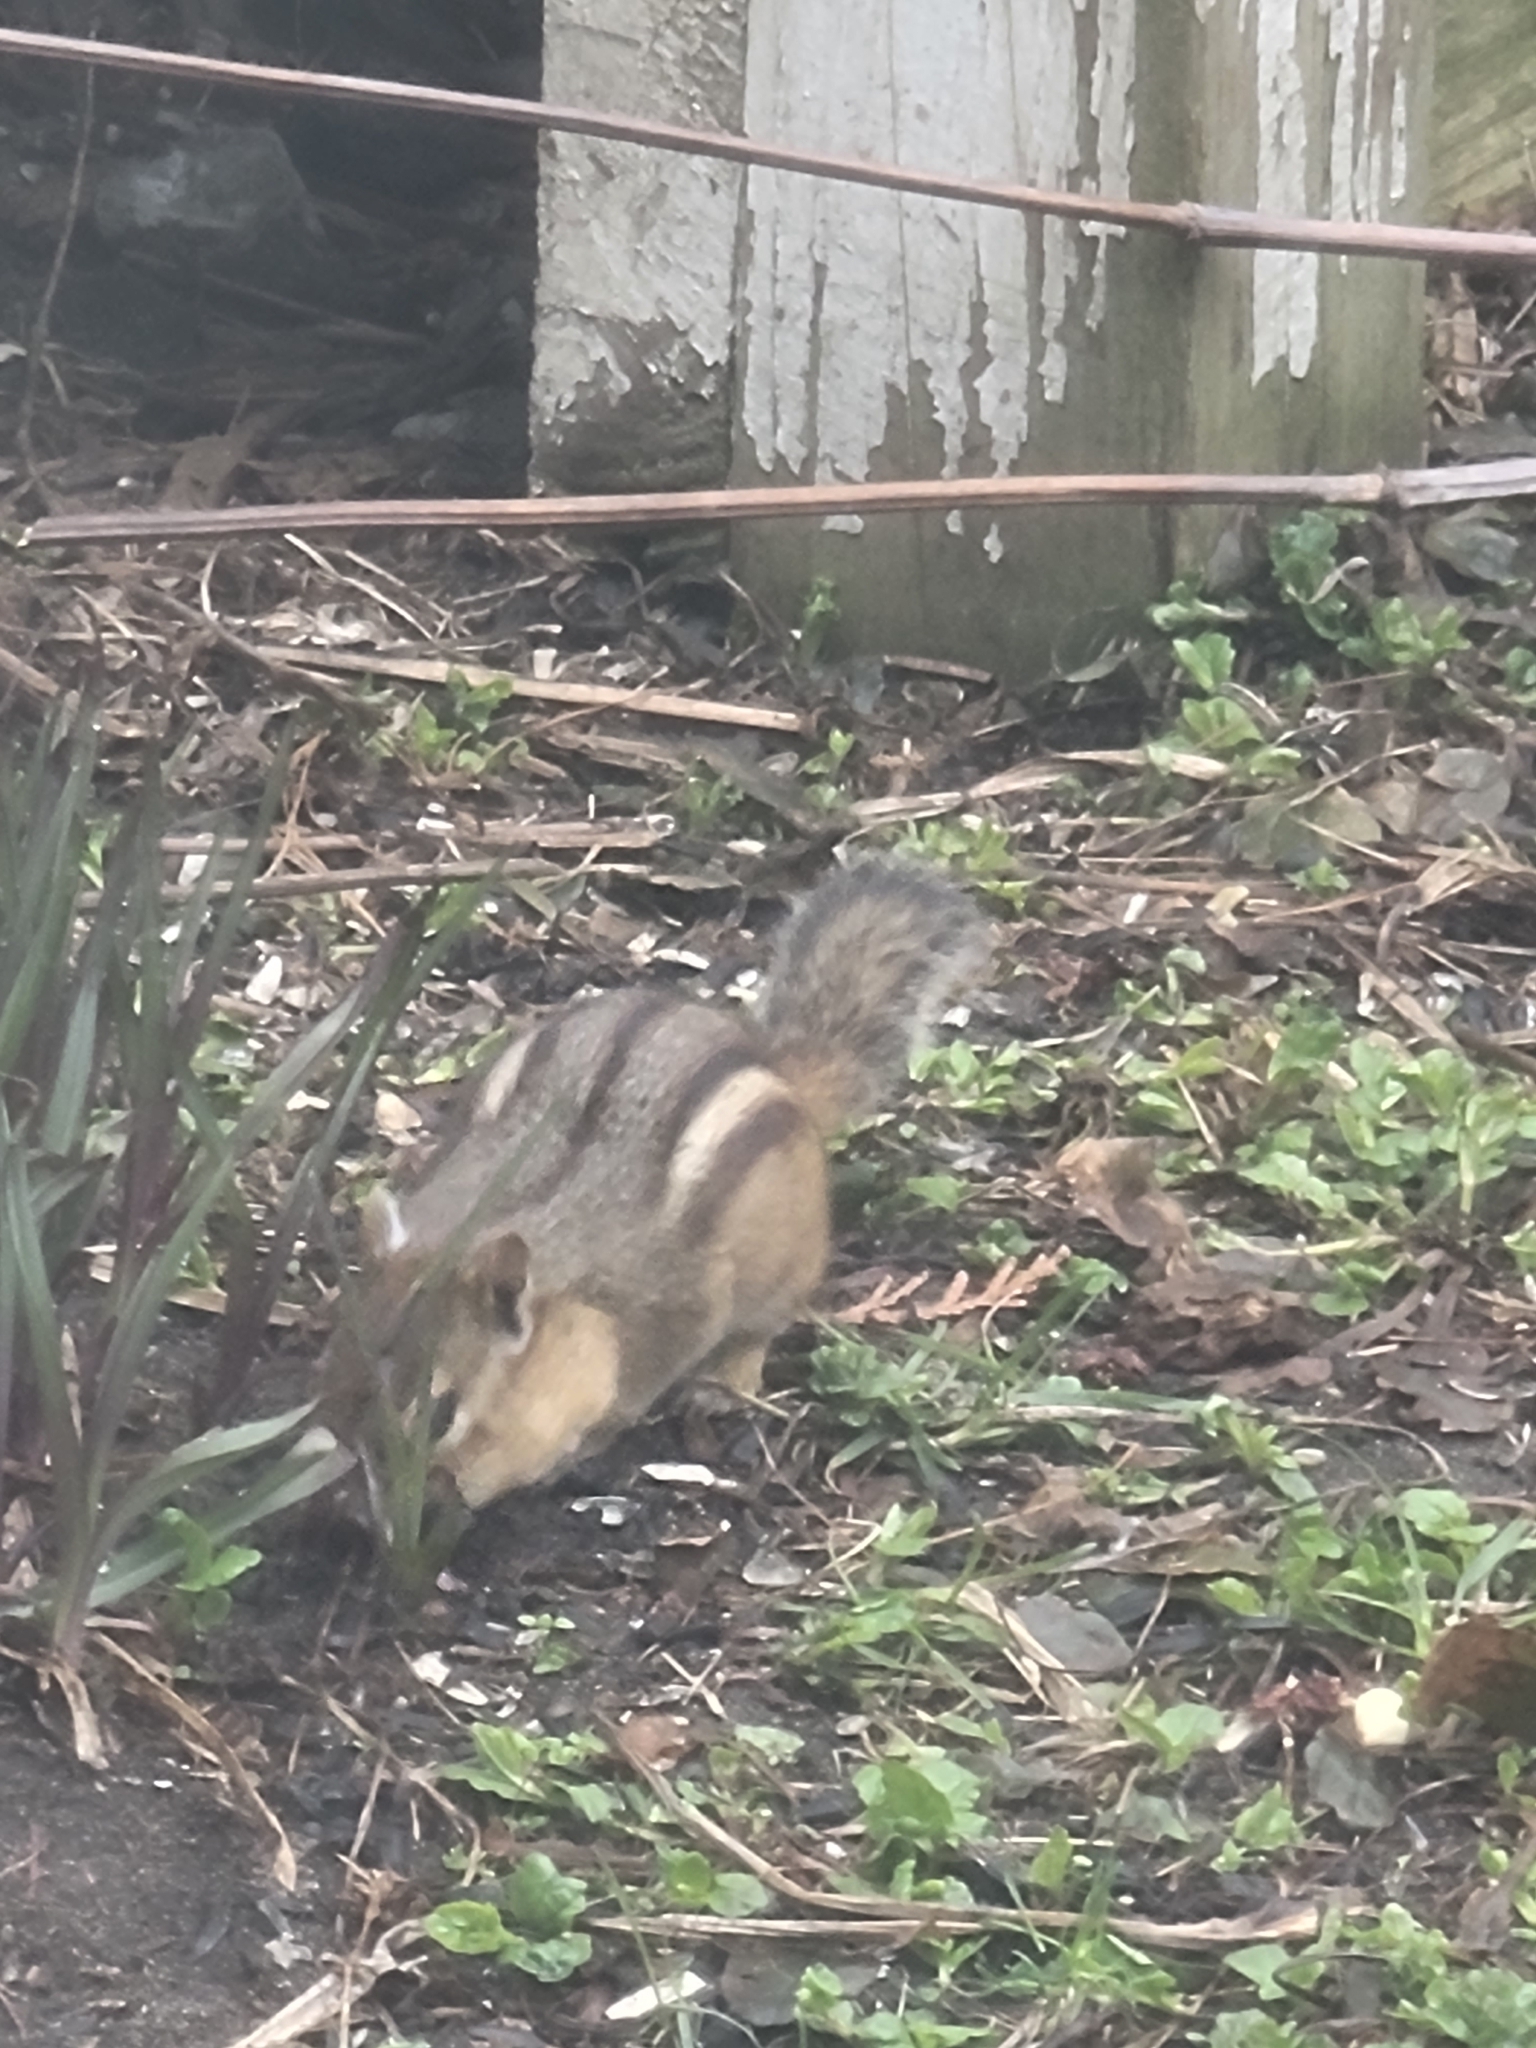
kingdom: Animalia
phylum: Chordata
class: Mammalia
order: Rodentia
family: Sciuridae
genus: Tamias
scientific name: Tamias striatus
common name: Eastern chipmunk
